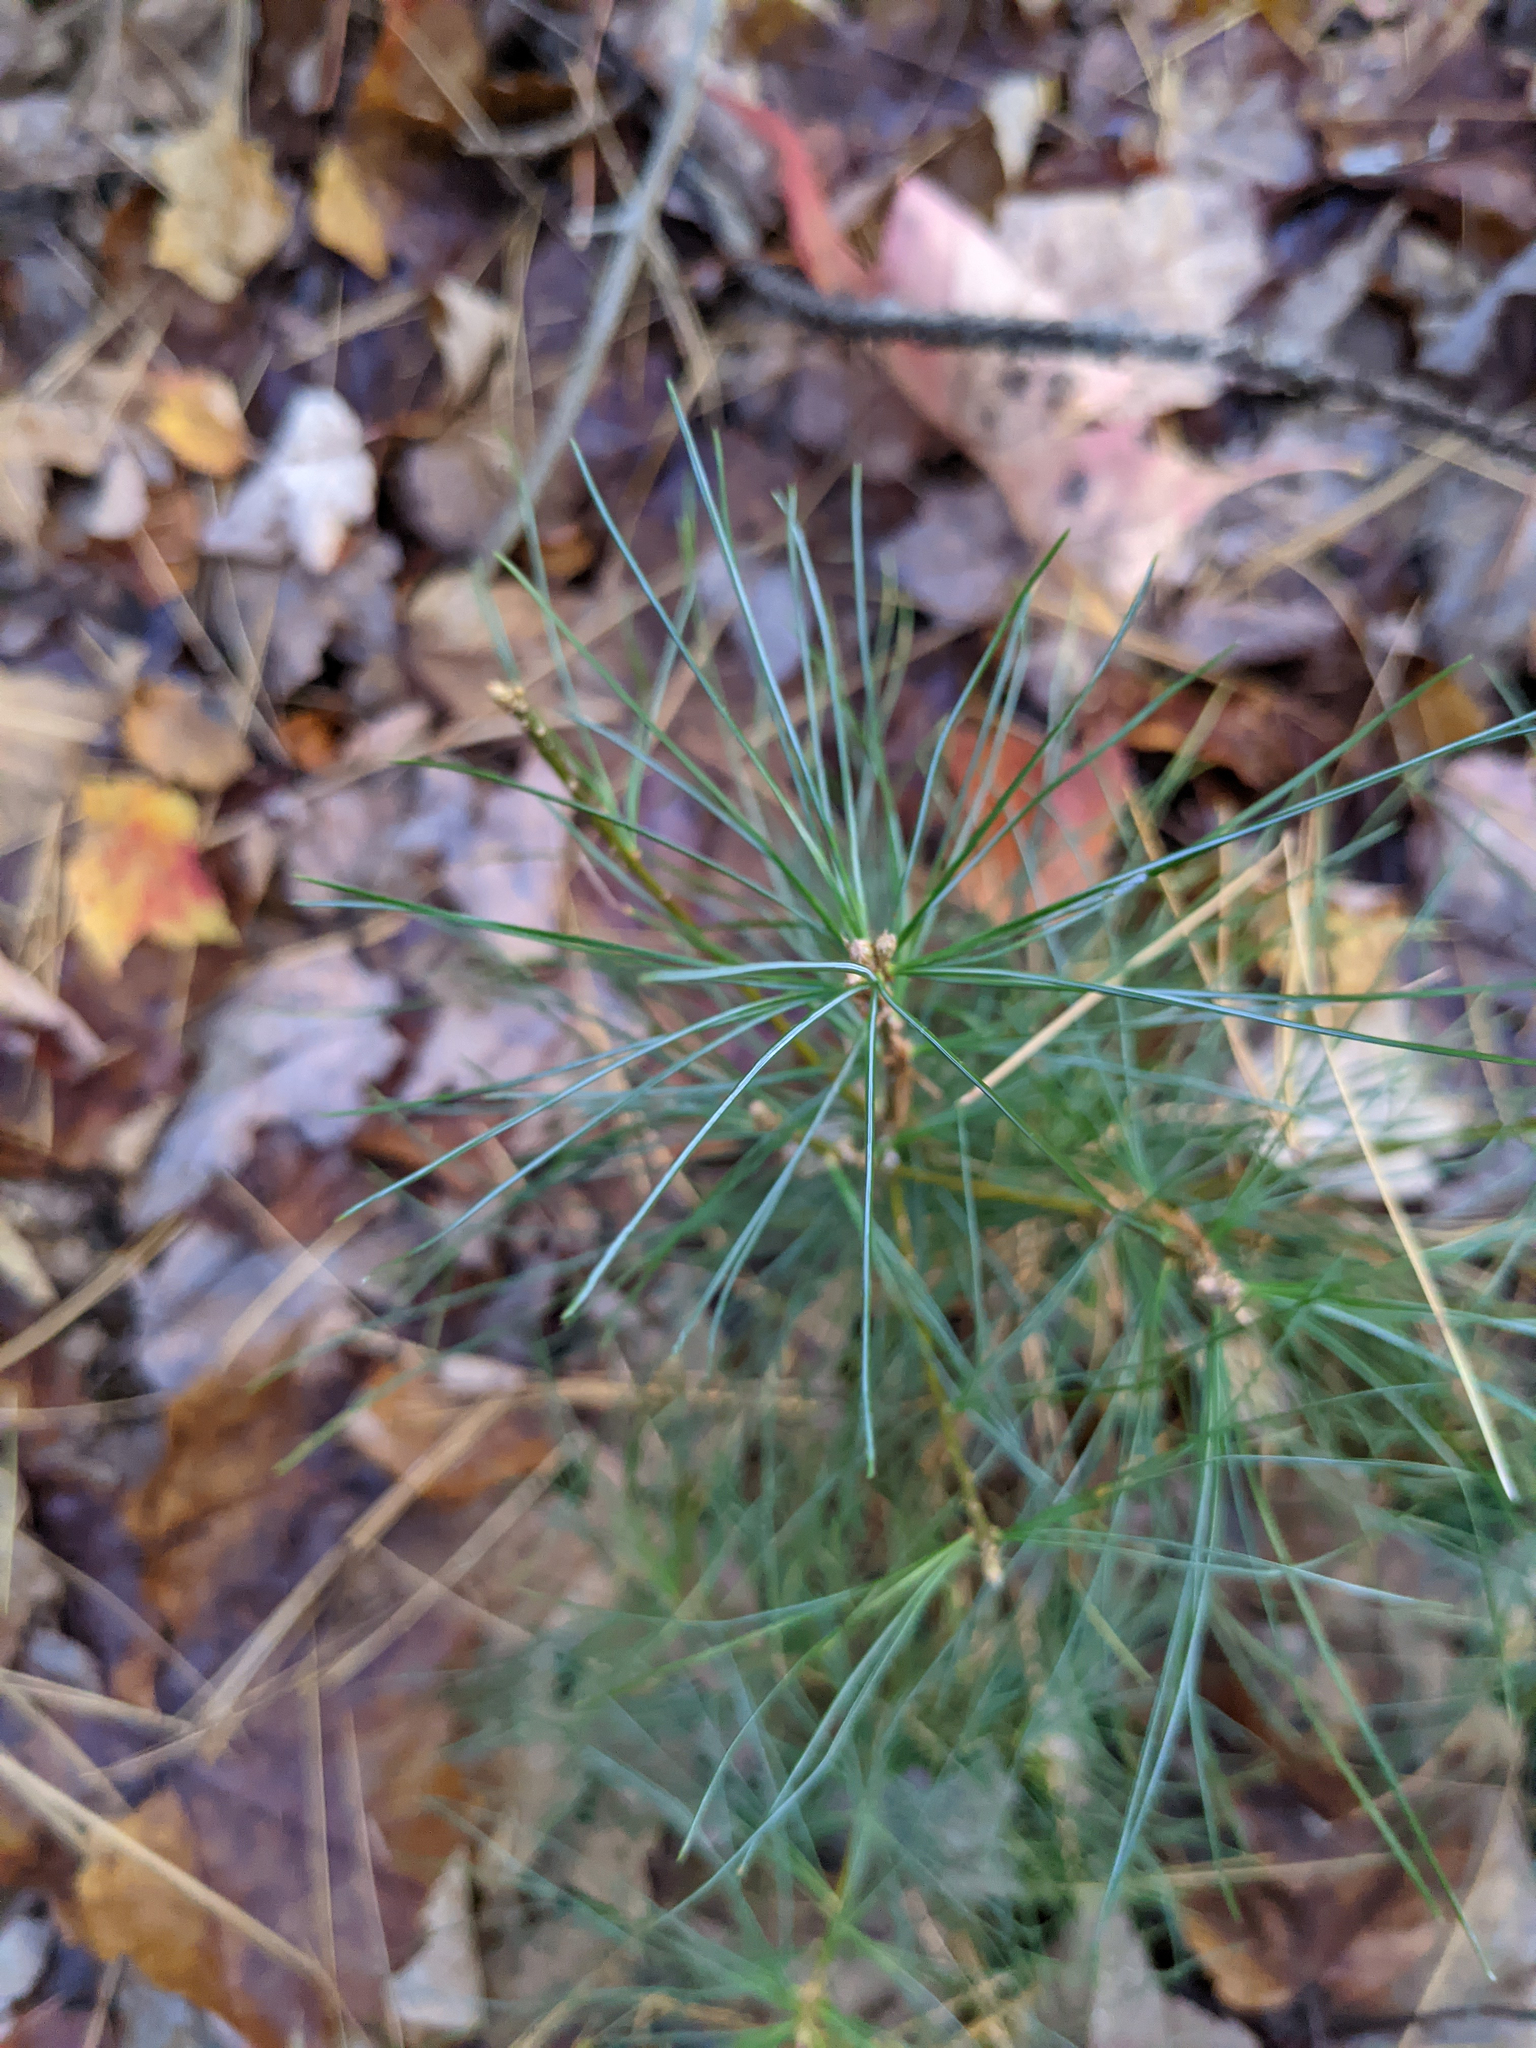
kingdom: Plantae
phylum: Tracheophyta
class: Pinopsida
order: Pinales
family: Pinaceae
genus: Pinus
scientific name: Pinus strobus
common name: Weymouth pine
